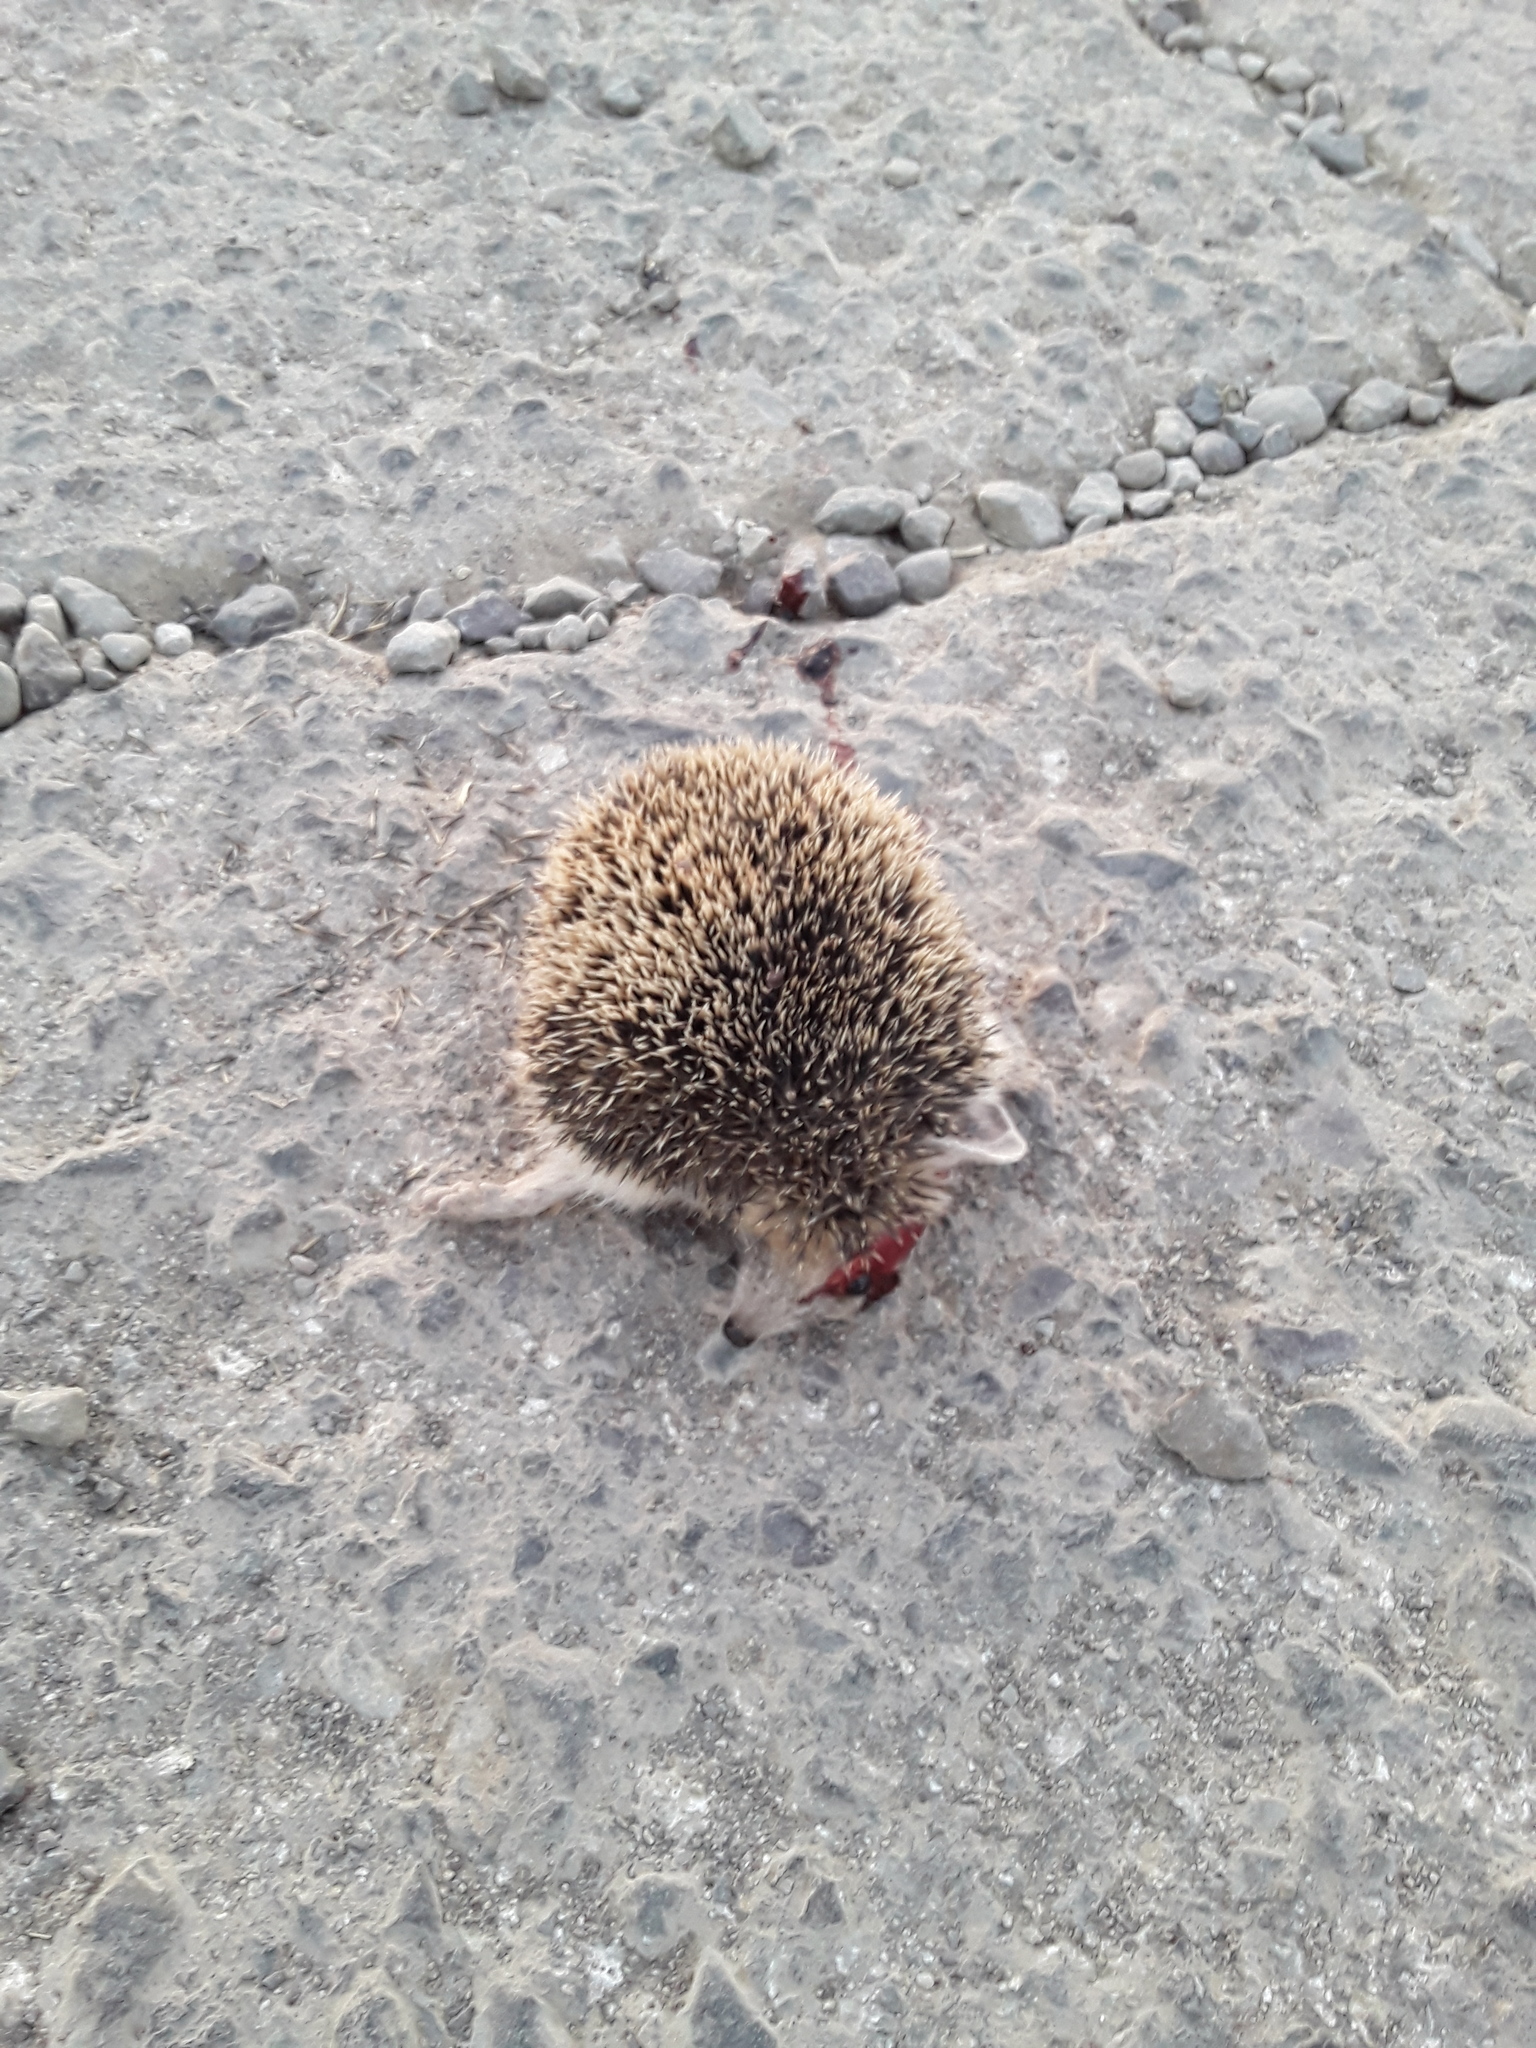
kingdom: Animalia
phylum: Chordata
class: Mammalia
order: Erinaceomorpha
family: Erinaceidae
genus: Hemiechinus
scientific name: Hemiechinus auritus
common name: Long-eared hedgehog
